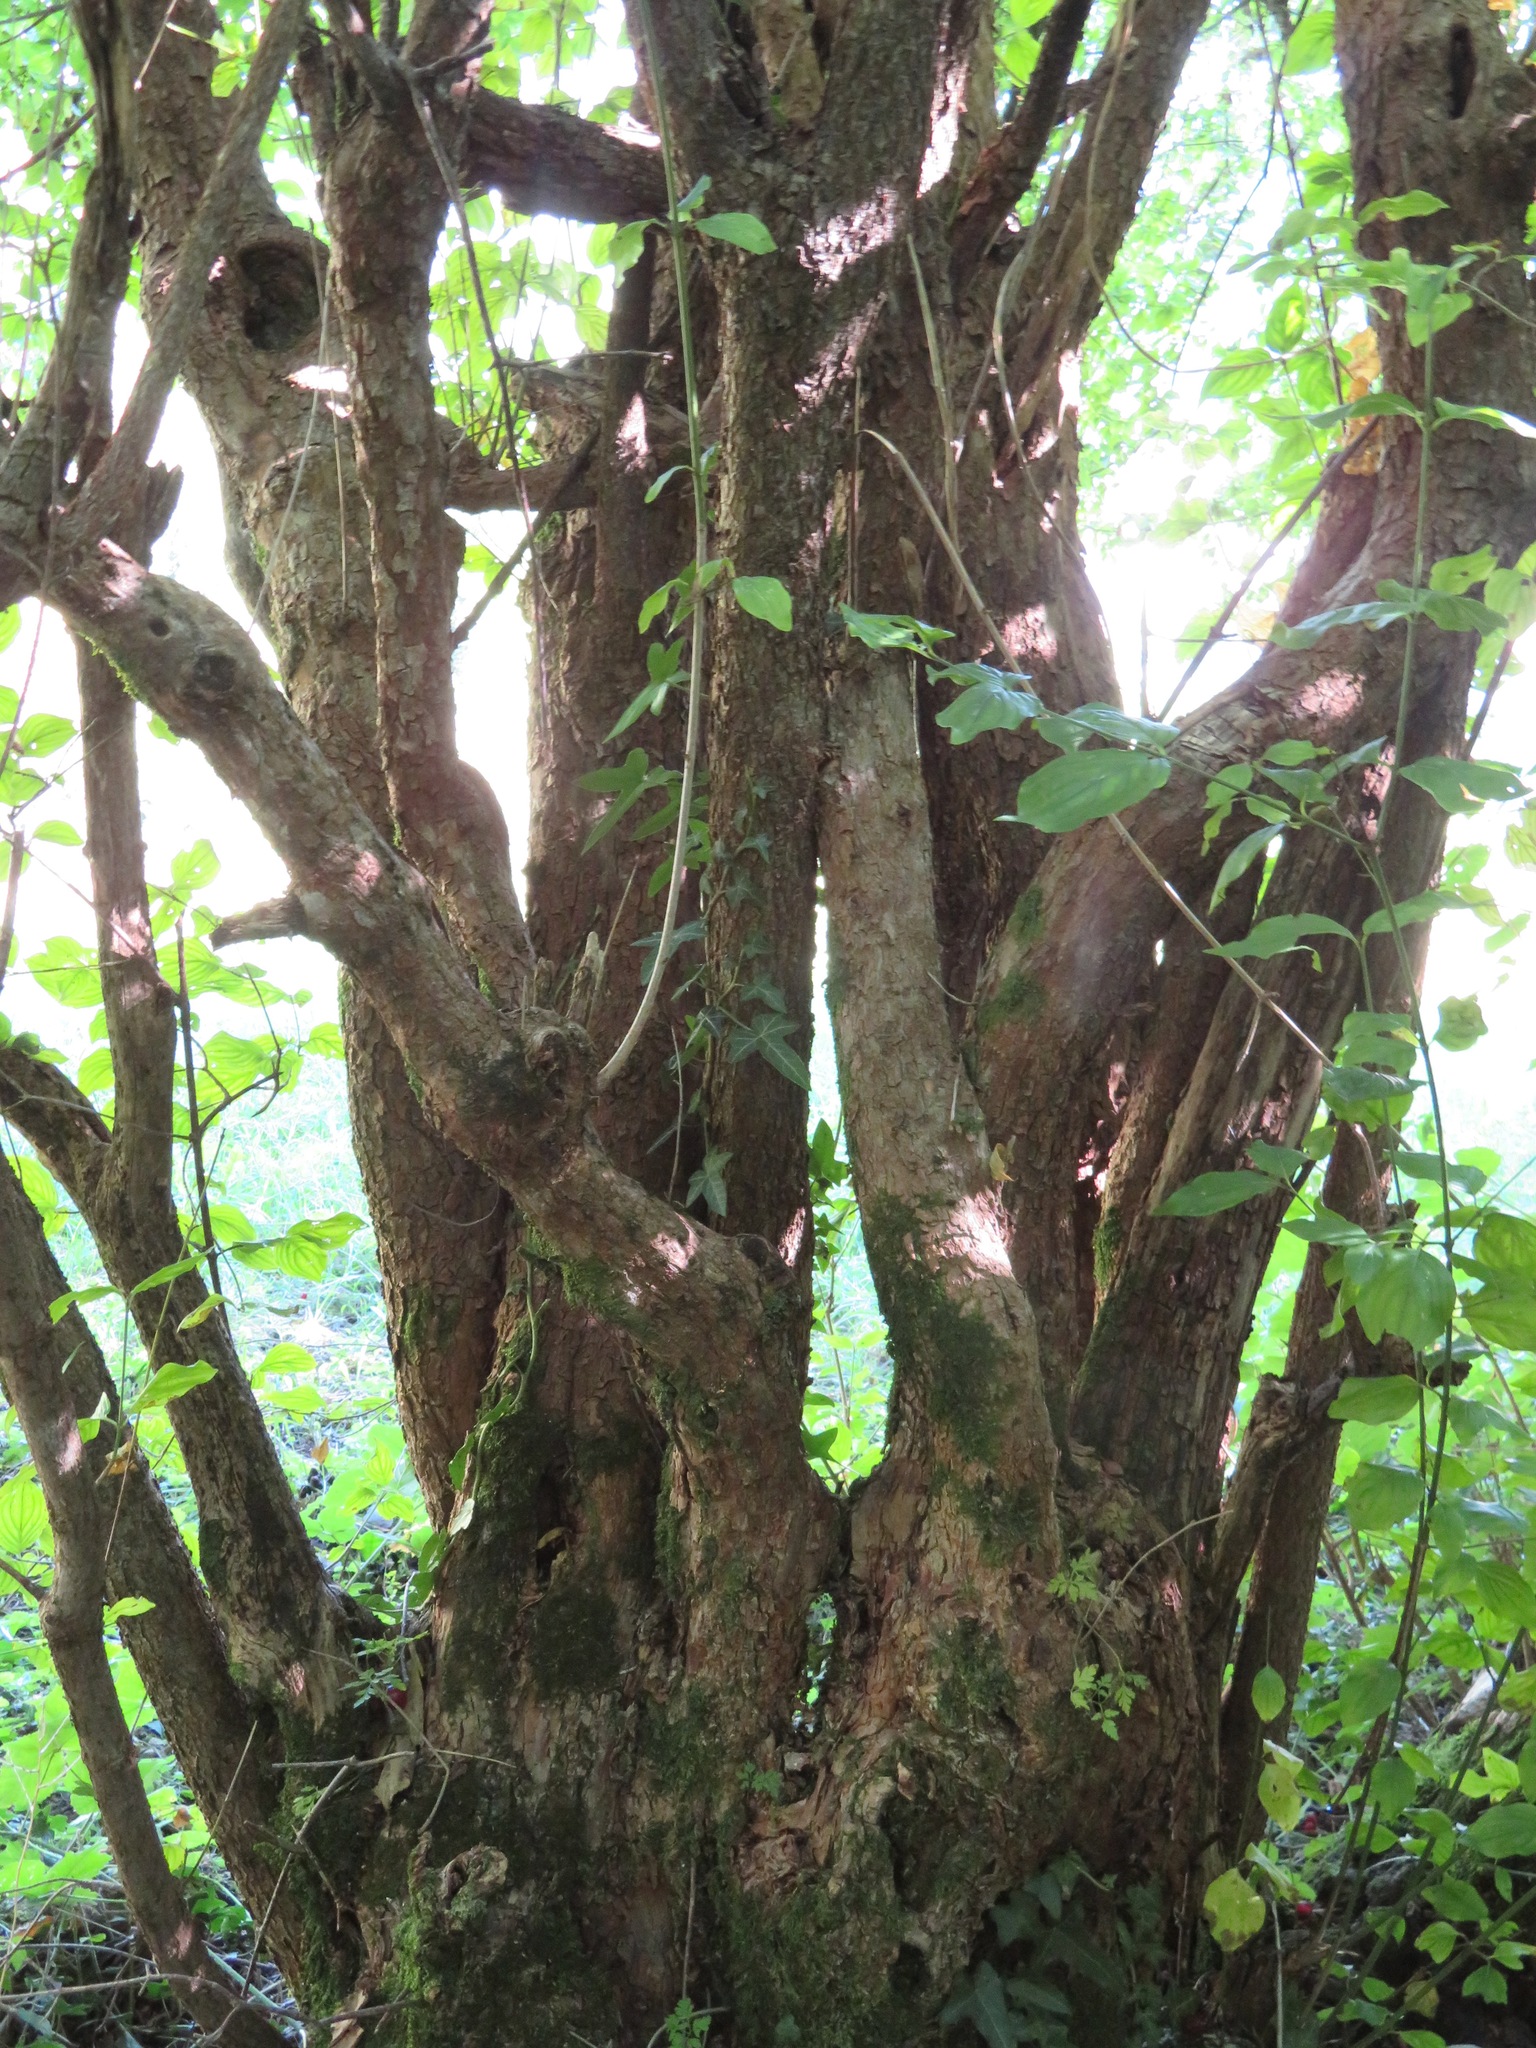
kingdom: Plantae
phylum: Tracheophyta
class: Magnoliopsida
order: Cornales
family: Cornaceae
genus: Cornus
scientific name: Cornus mas
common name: Cornelian-cherry
